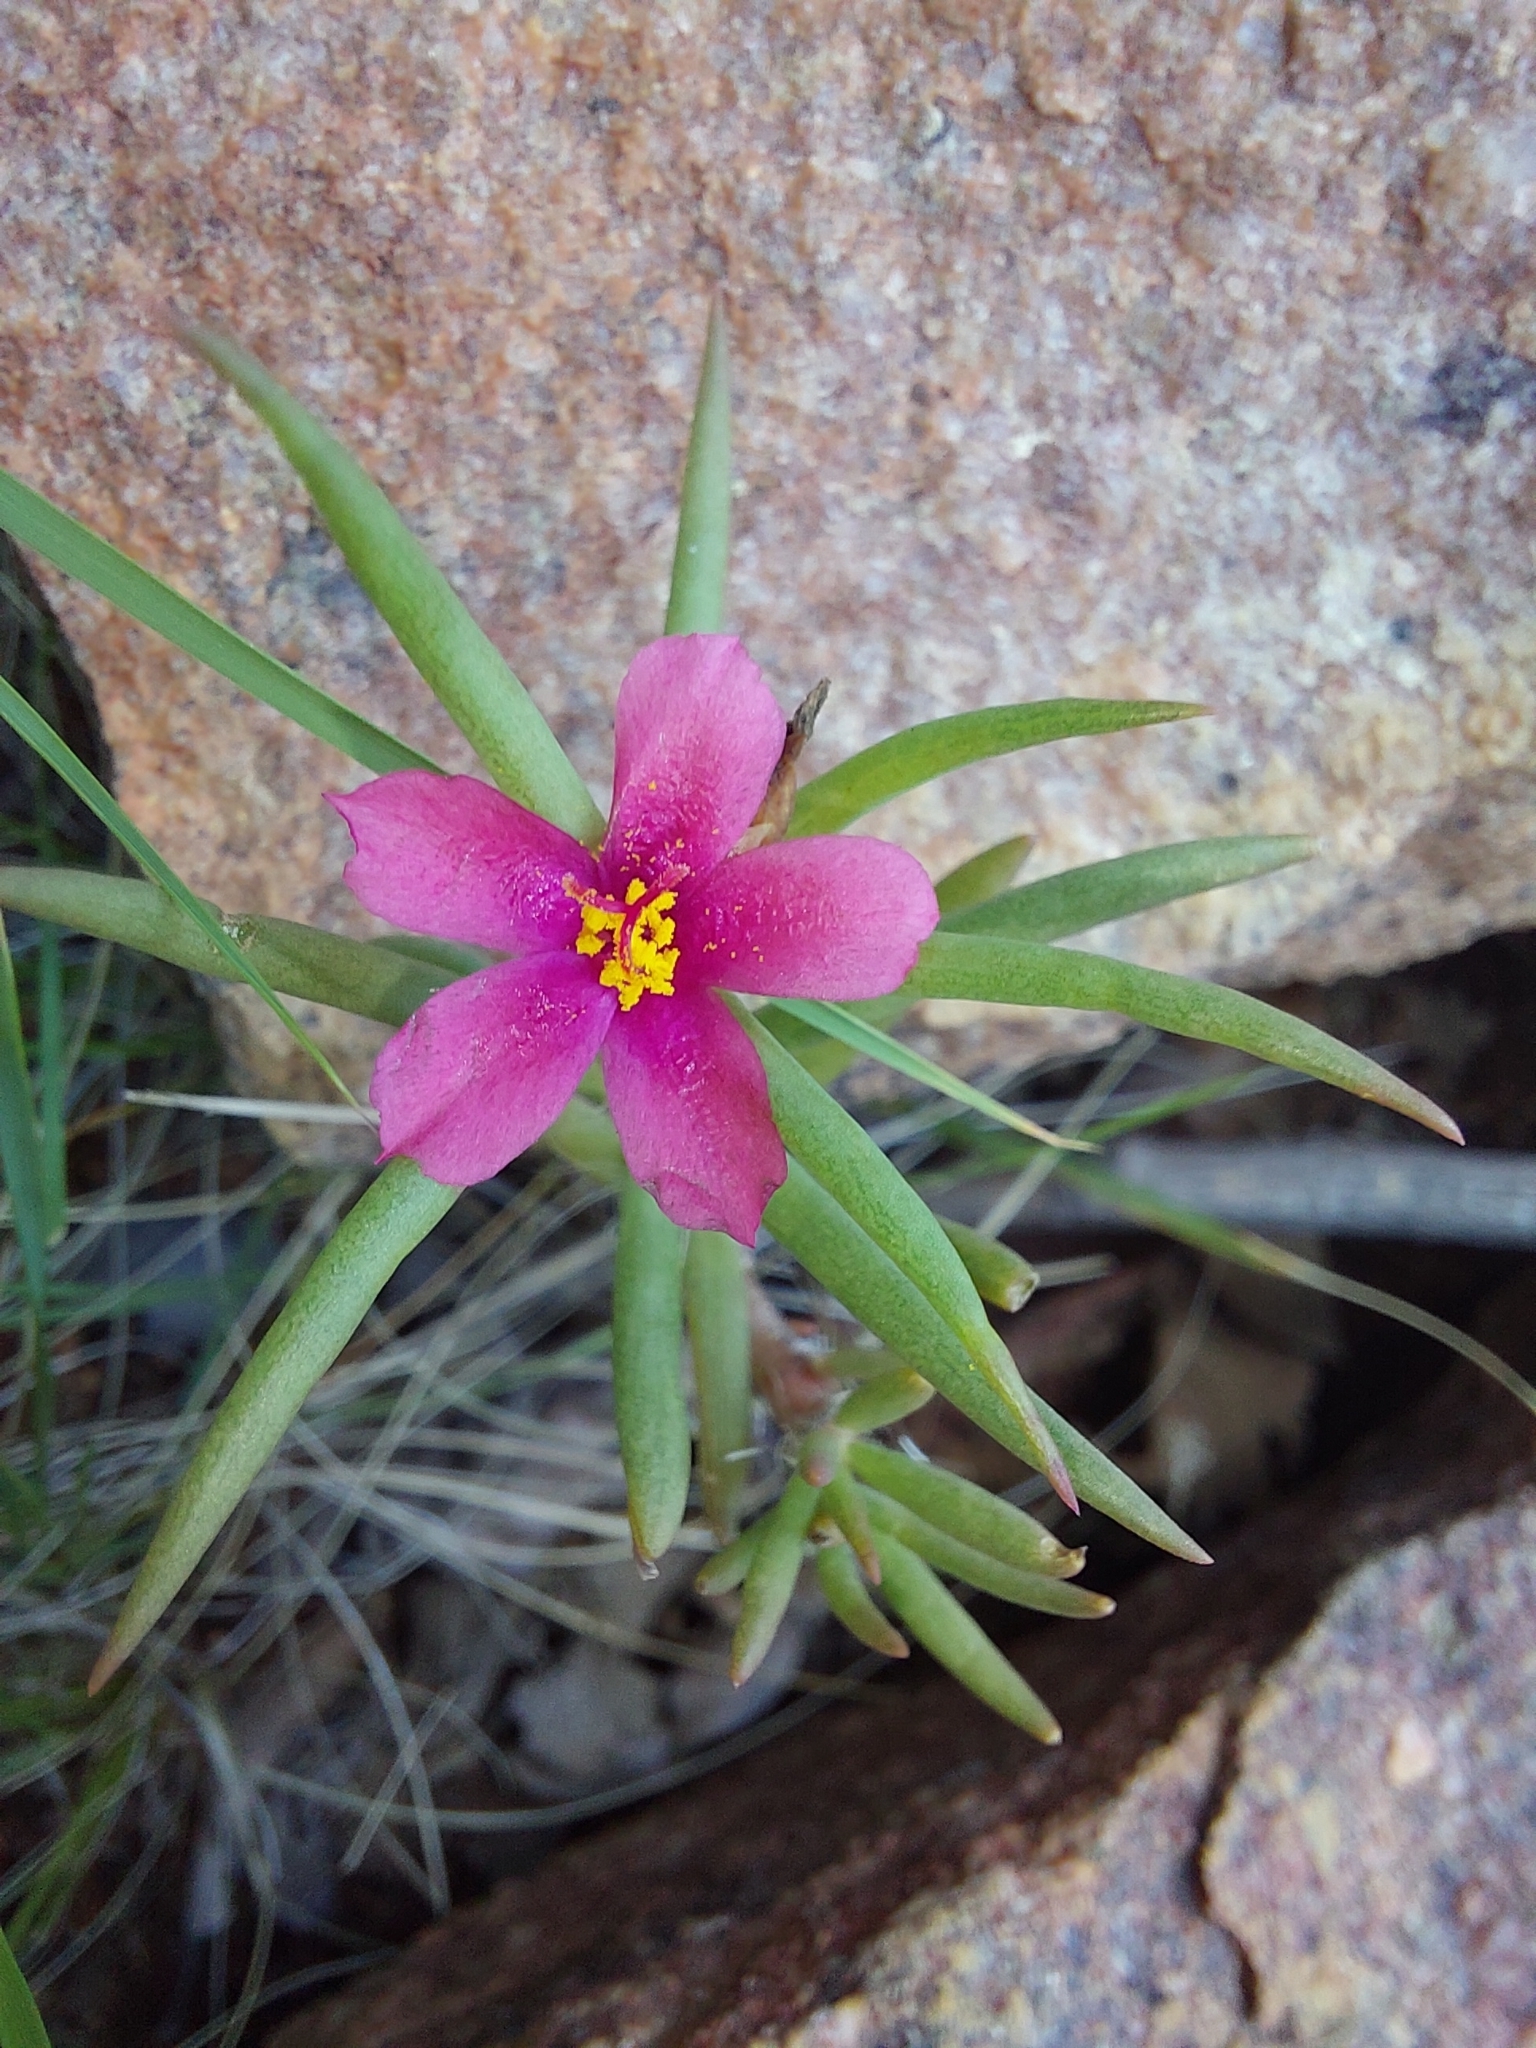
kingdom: Plantae
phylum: Tracheophyta
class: Magnoliopsida
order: Caryophyllales
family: Portulacaceae
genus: Portulaca
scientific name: Portulaca kermesina
